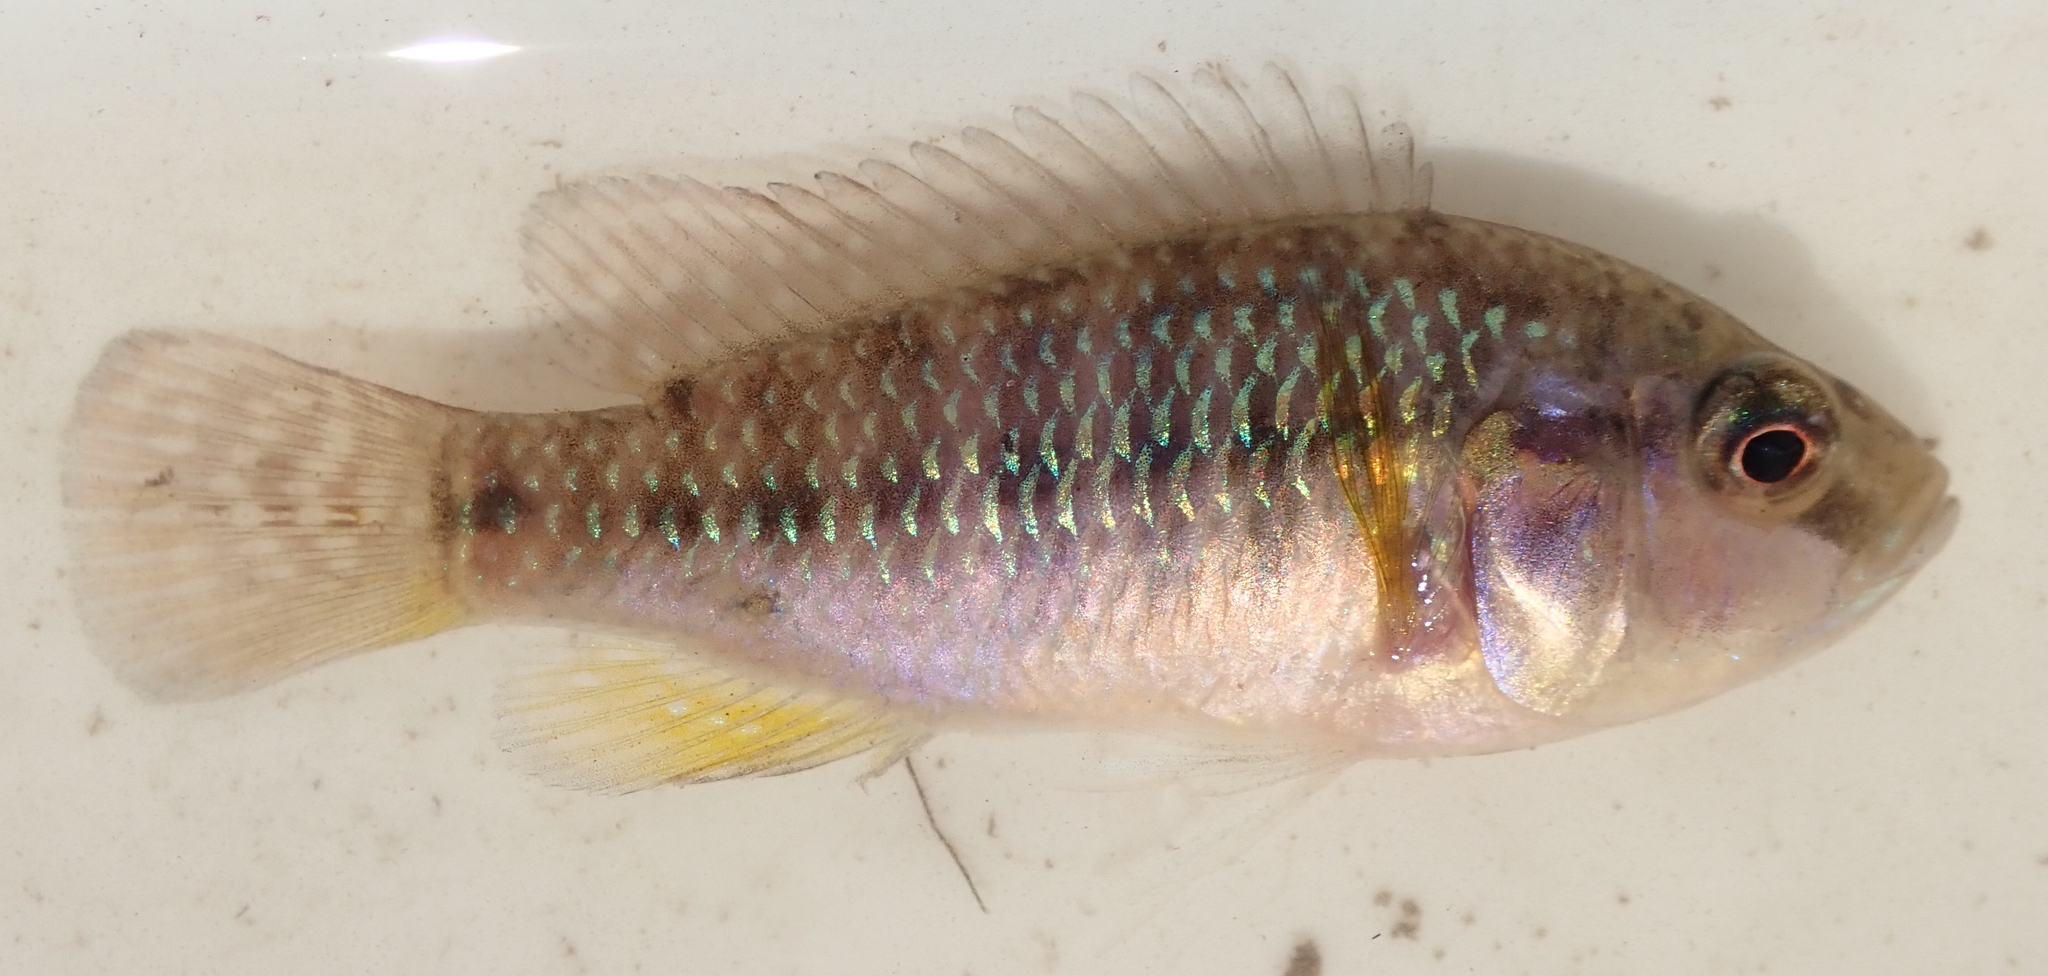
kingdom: Animalia
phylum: Chordata
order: Perciformes
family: Cichlidae
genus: Pseudocrenilabrus
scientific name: Pseudocrenilabrus philander
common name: Southern mouthbrooder
